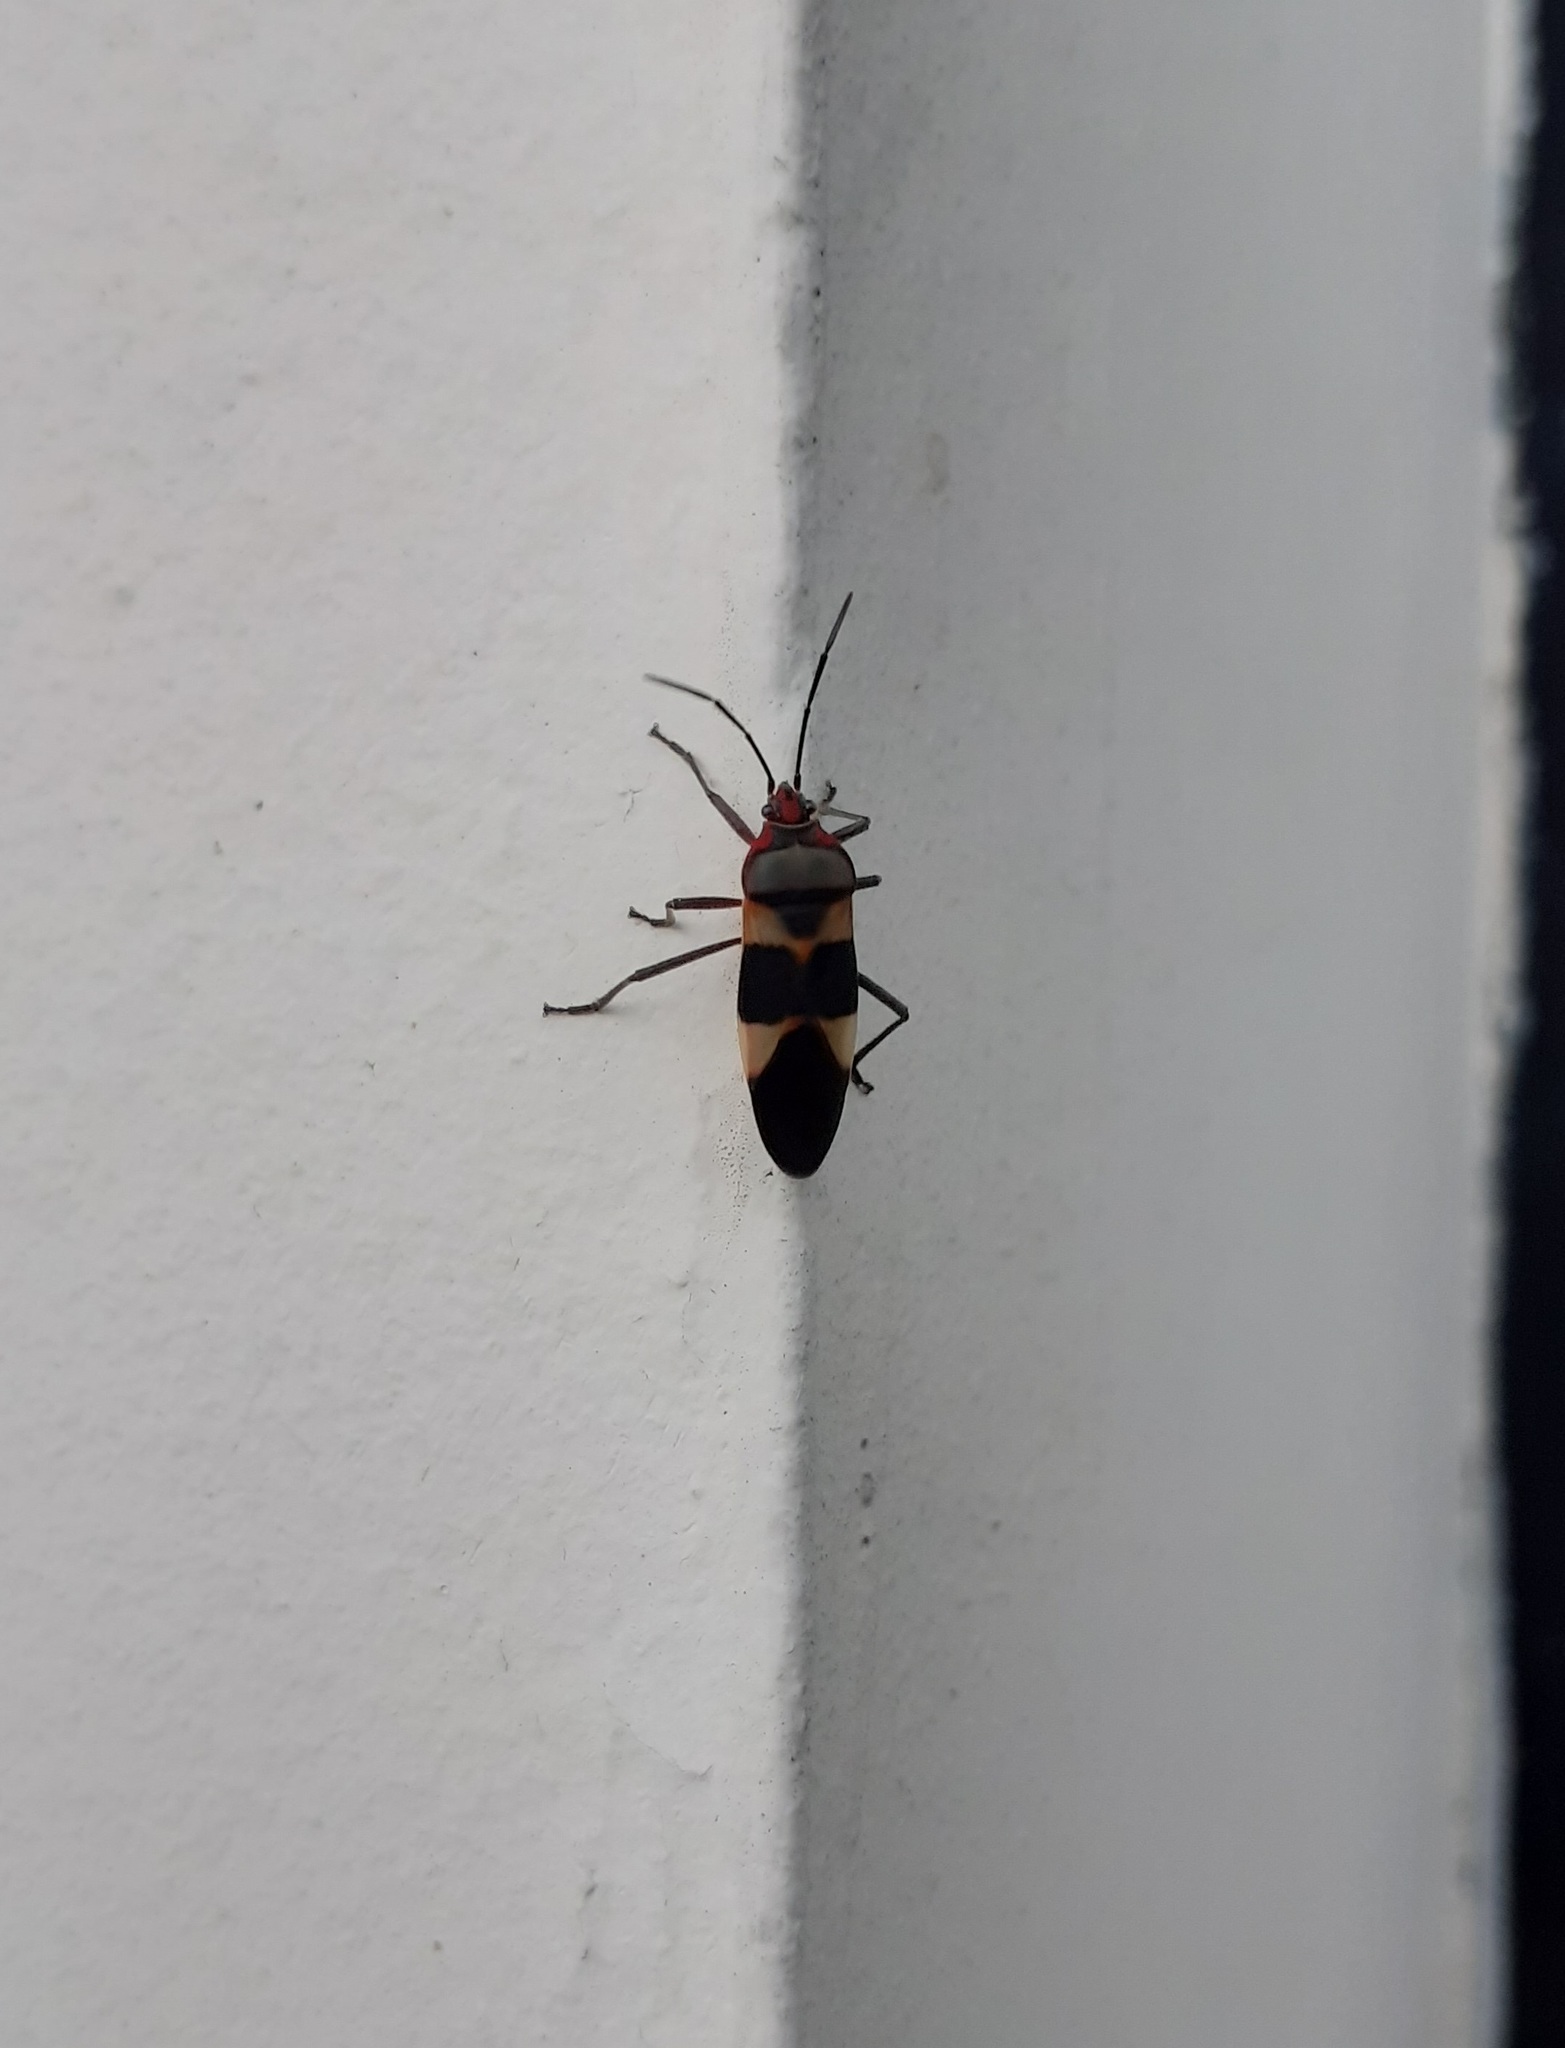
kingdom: Animalia
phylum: Arthropoda
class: Insecta
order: Hemiptera
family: Lygaeidae
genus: Oncopeltus
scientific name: Oncopeltus unifasciatellus
